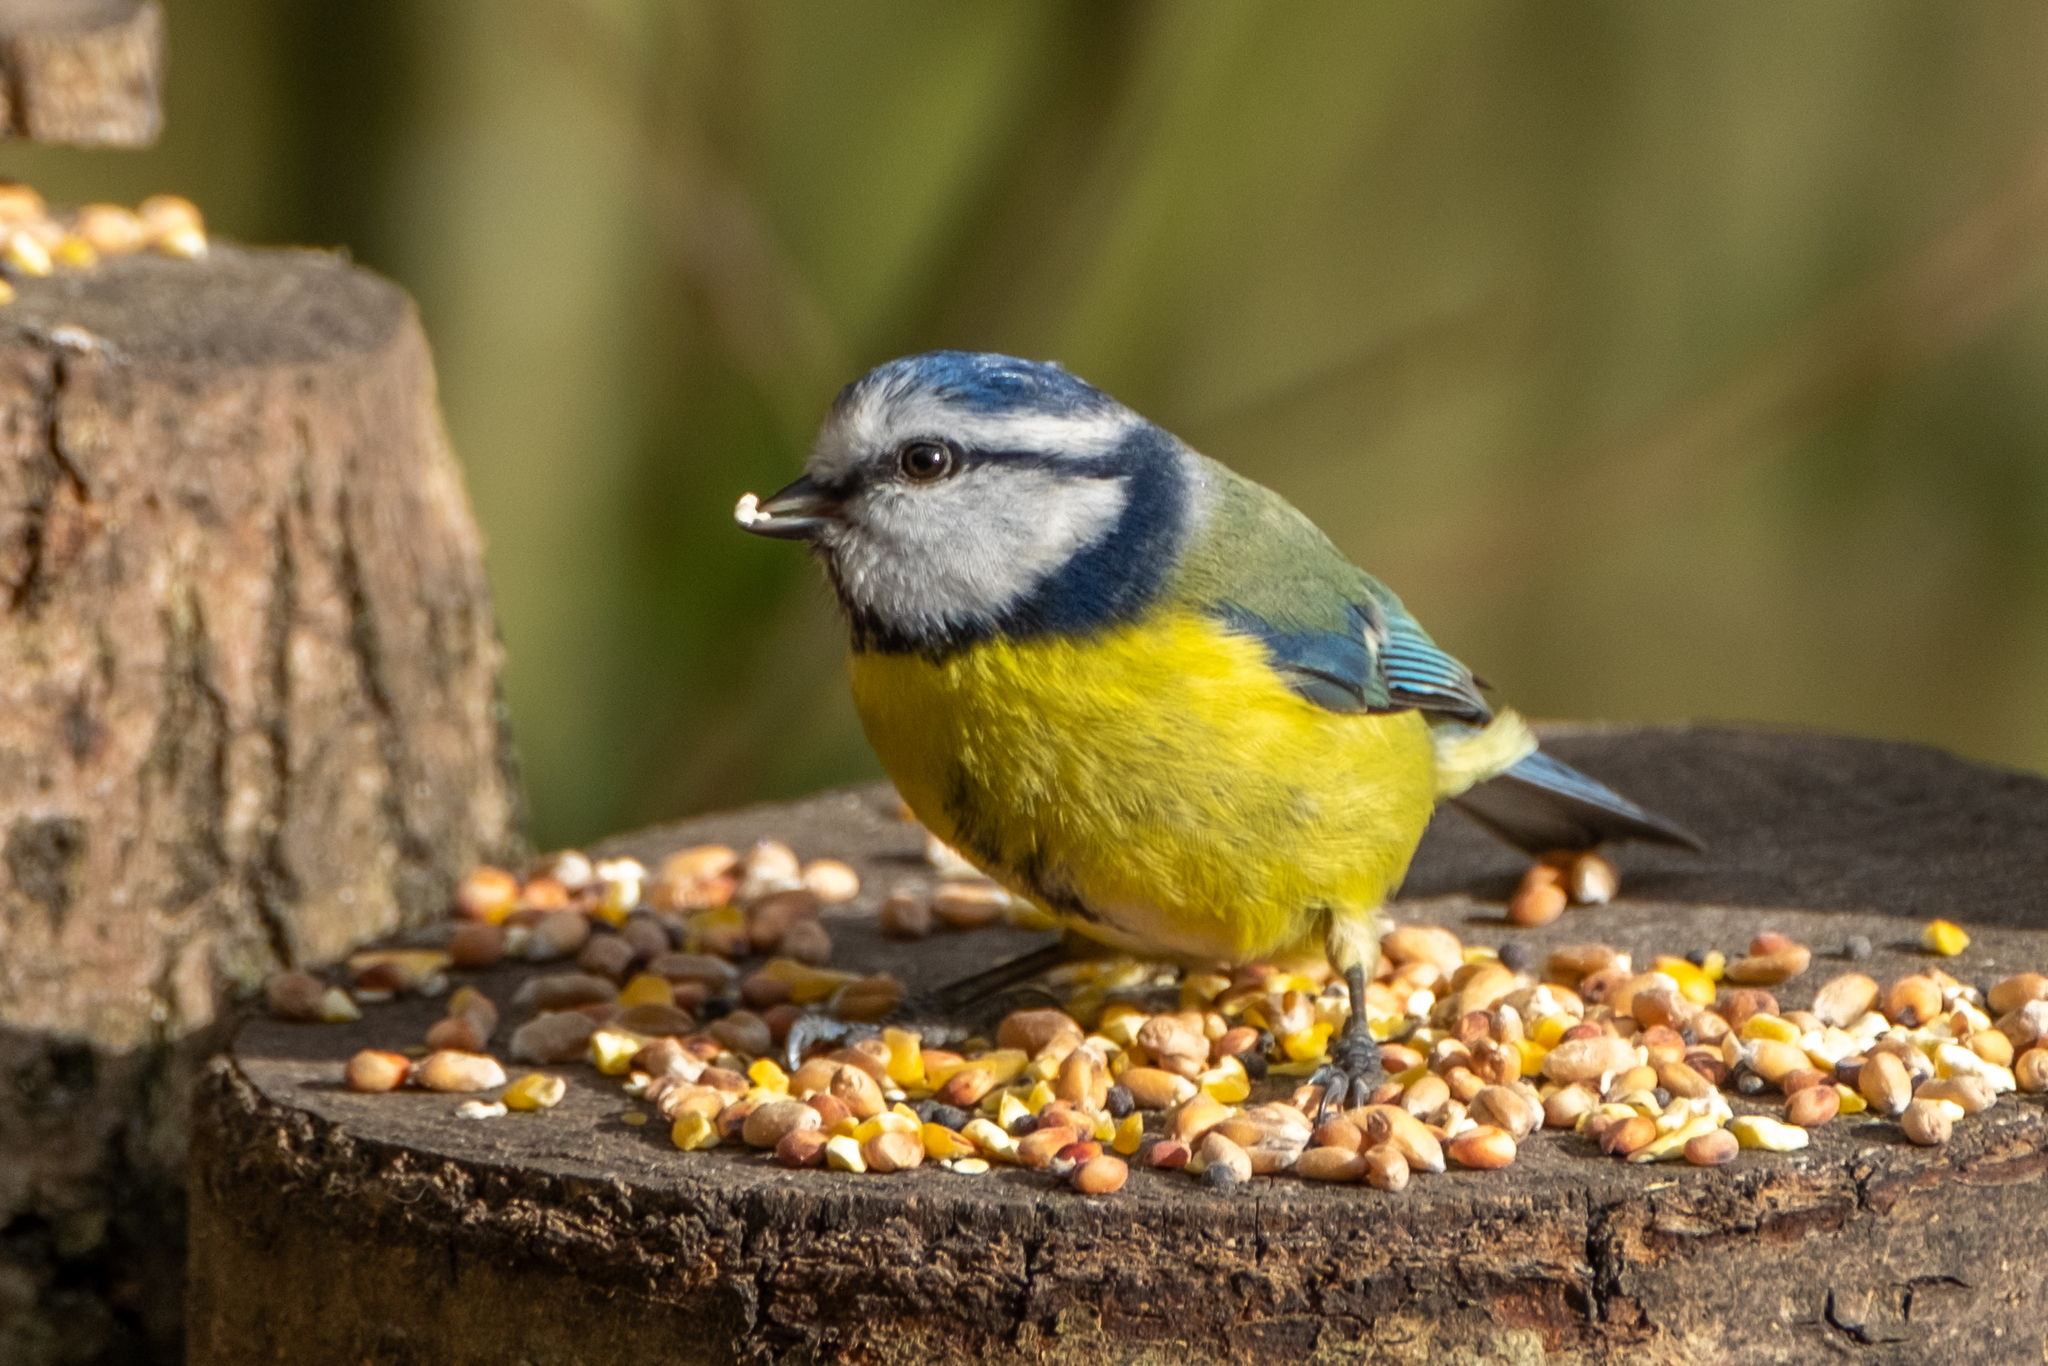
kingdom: Animalia
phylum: Chordata
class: Aves
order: Passeriformes
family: Paridae
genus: Cyanistes
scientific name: Cyanistes caeruleus
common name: Eurasian blue tit
